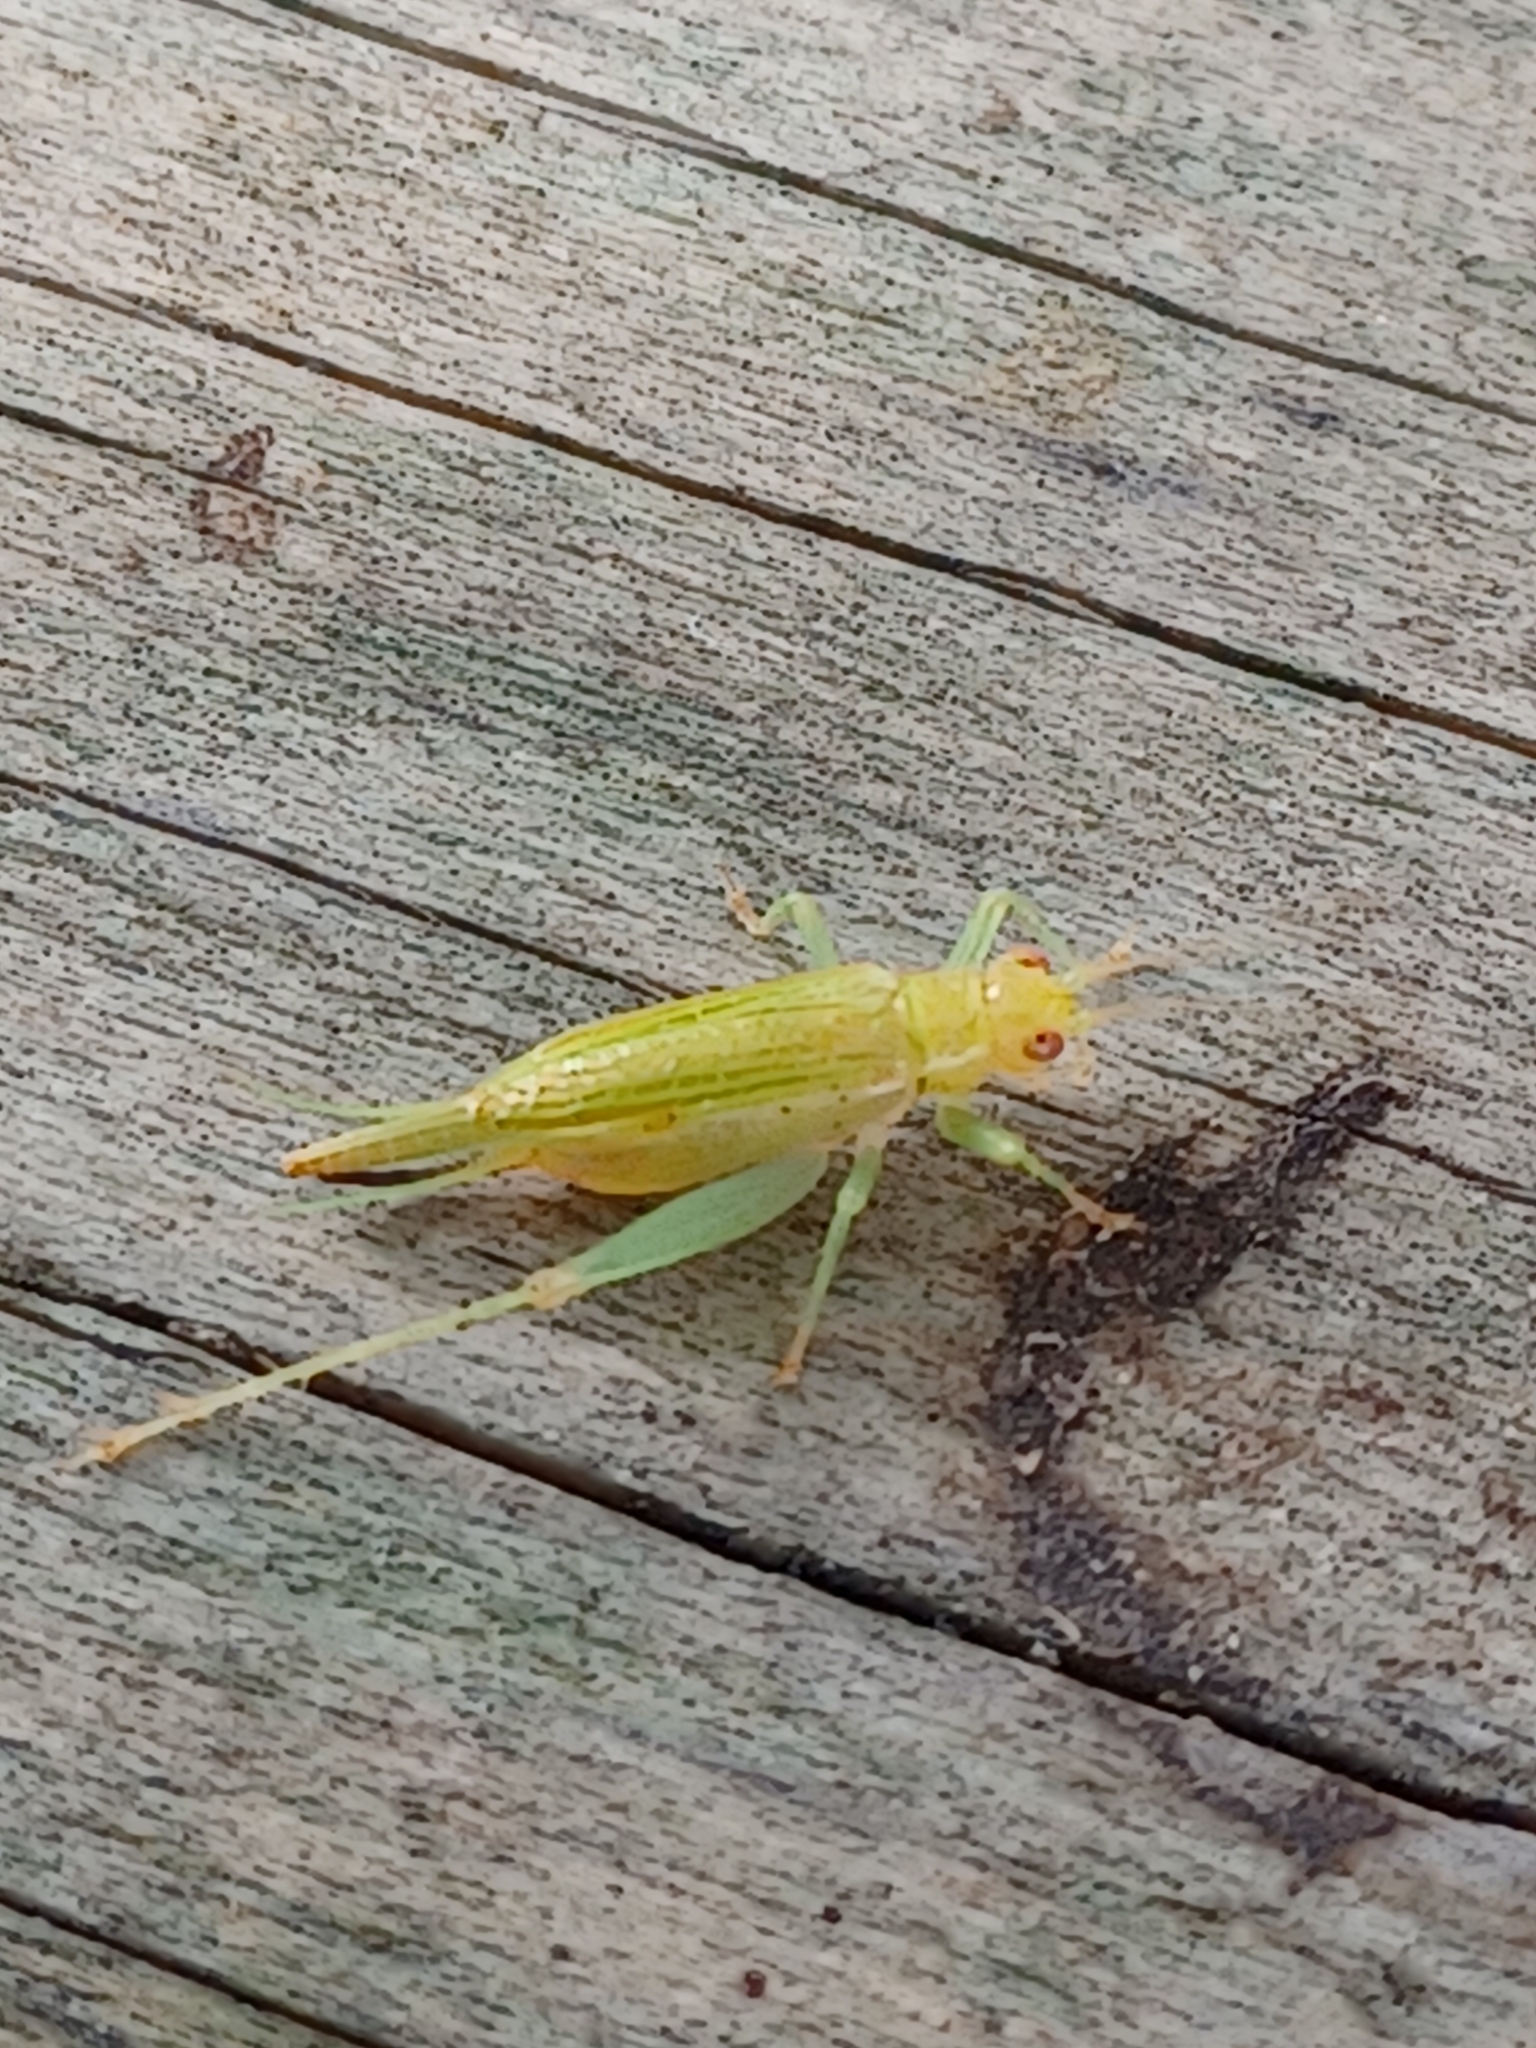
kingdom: Animalia
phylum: Arthropoda
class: Insecta
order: Orthoptera
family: Trigonidiidae
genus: Cyrtoxipha
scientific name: Cyrtoxipha columbiana
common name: Columbian trig
